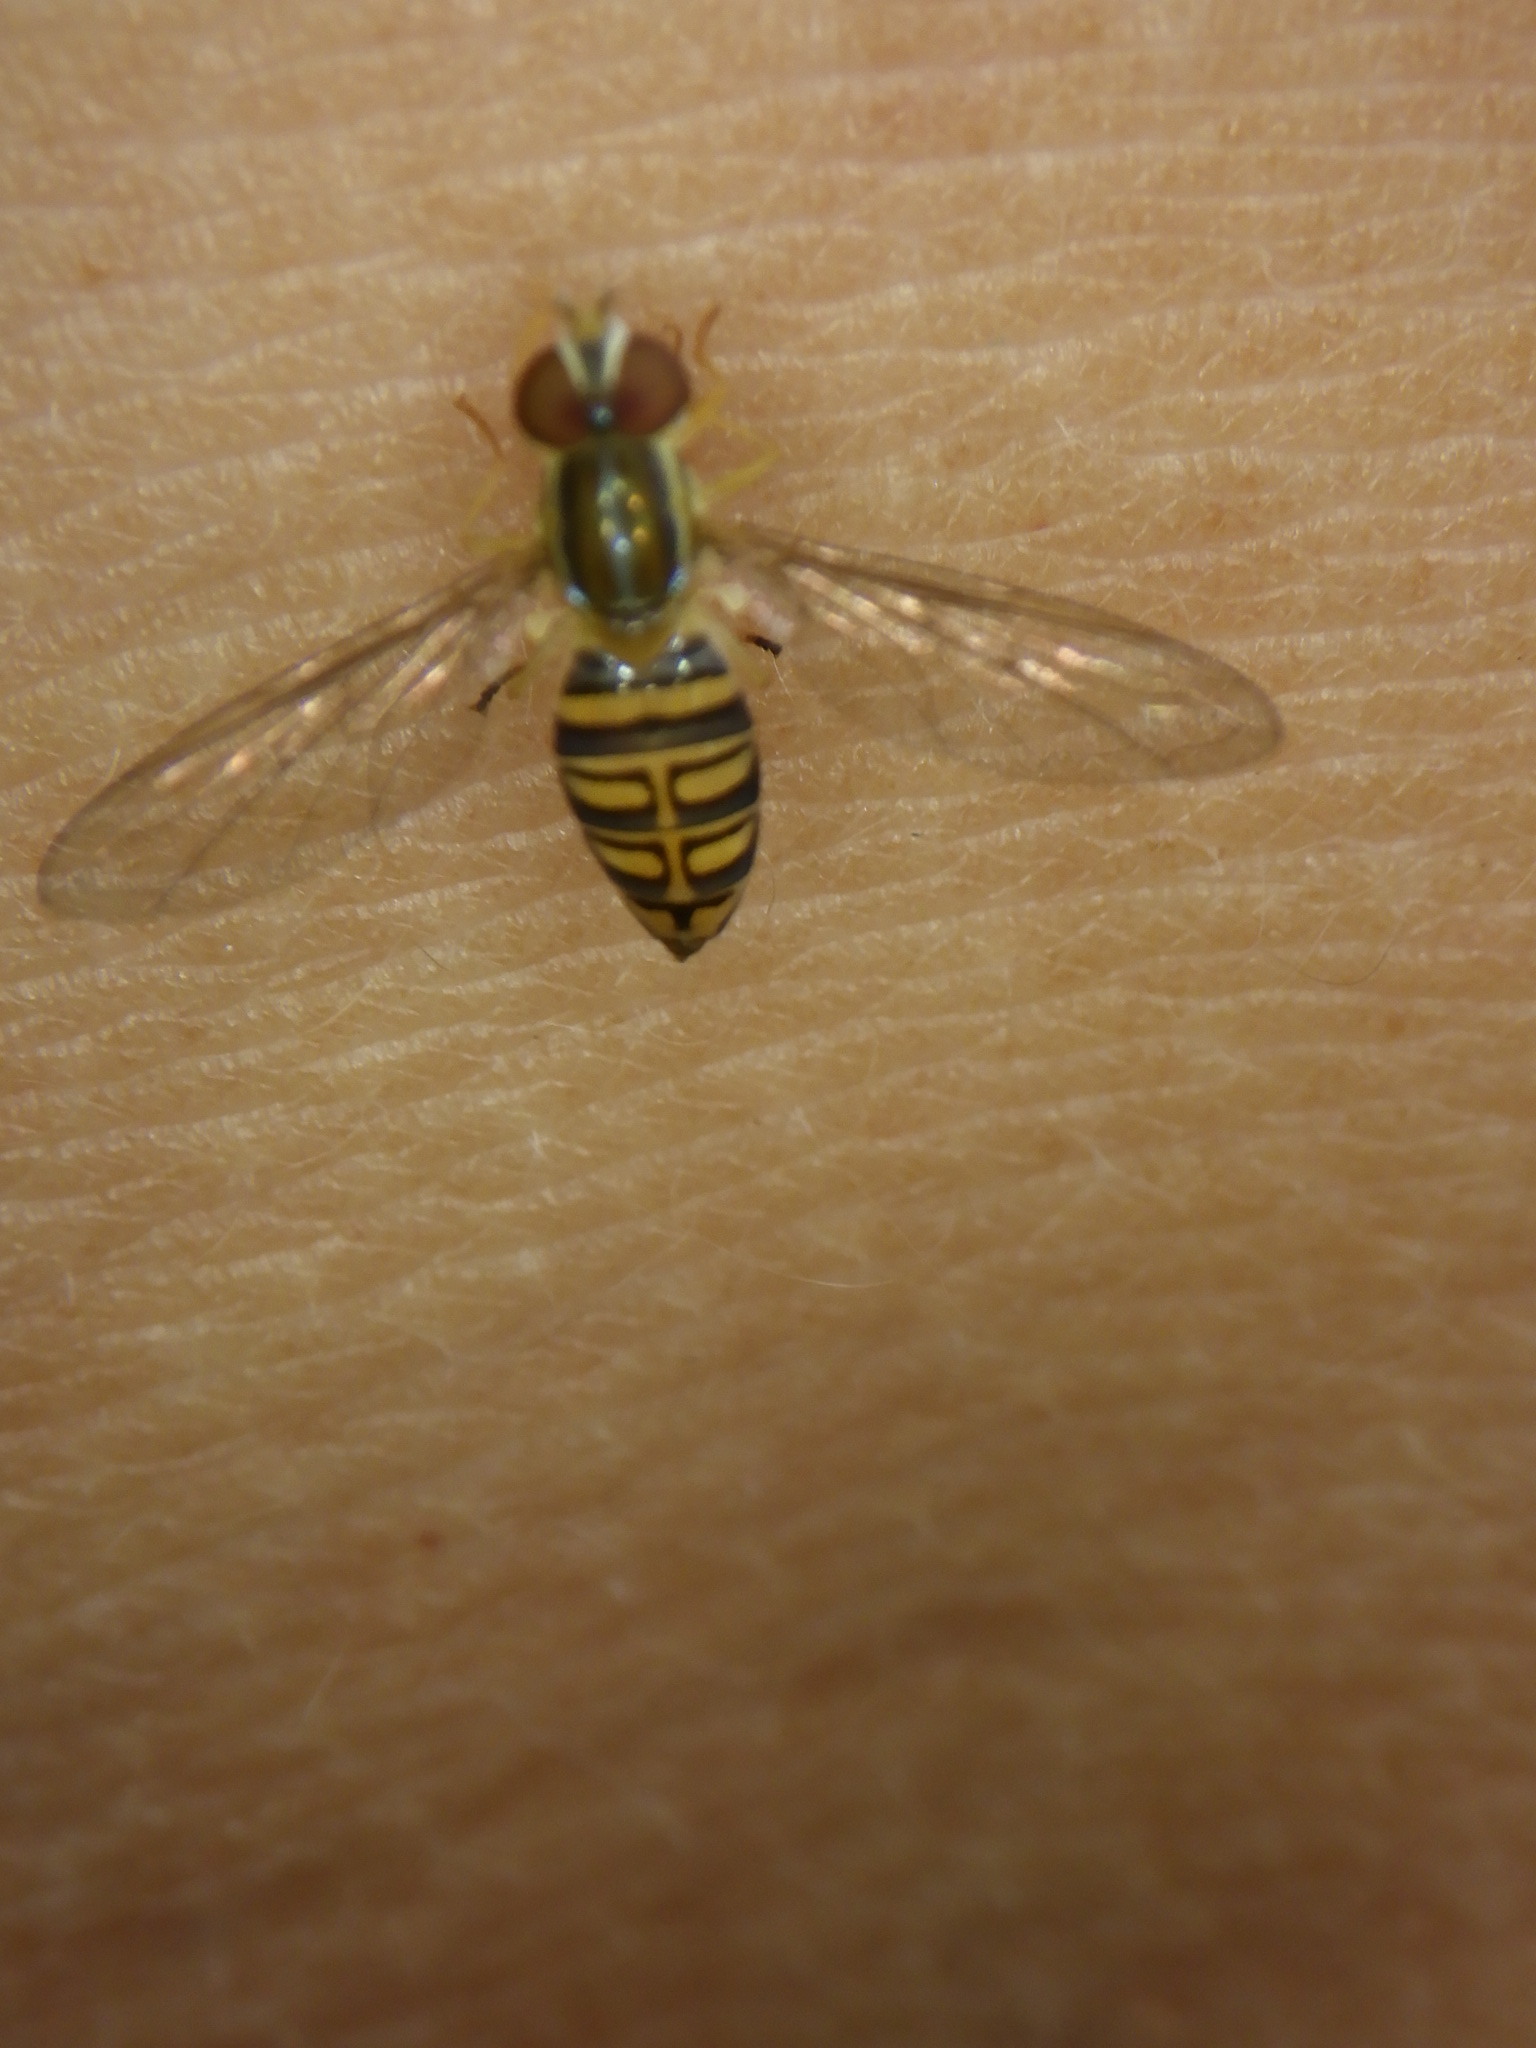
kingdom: Animalia
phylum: Arthropoda
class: Insecta
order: Diptera
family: Syrphidae
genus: Toxomerus
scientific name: Toxomerus politus
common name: Maize calligrapher
